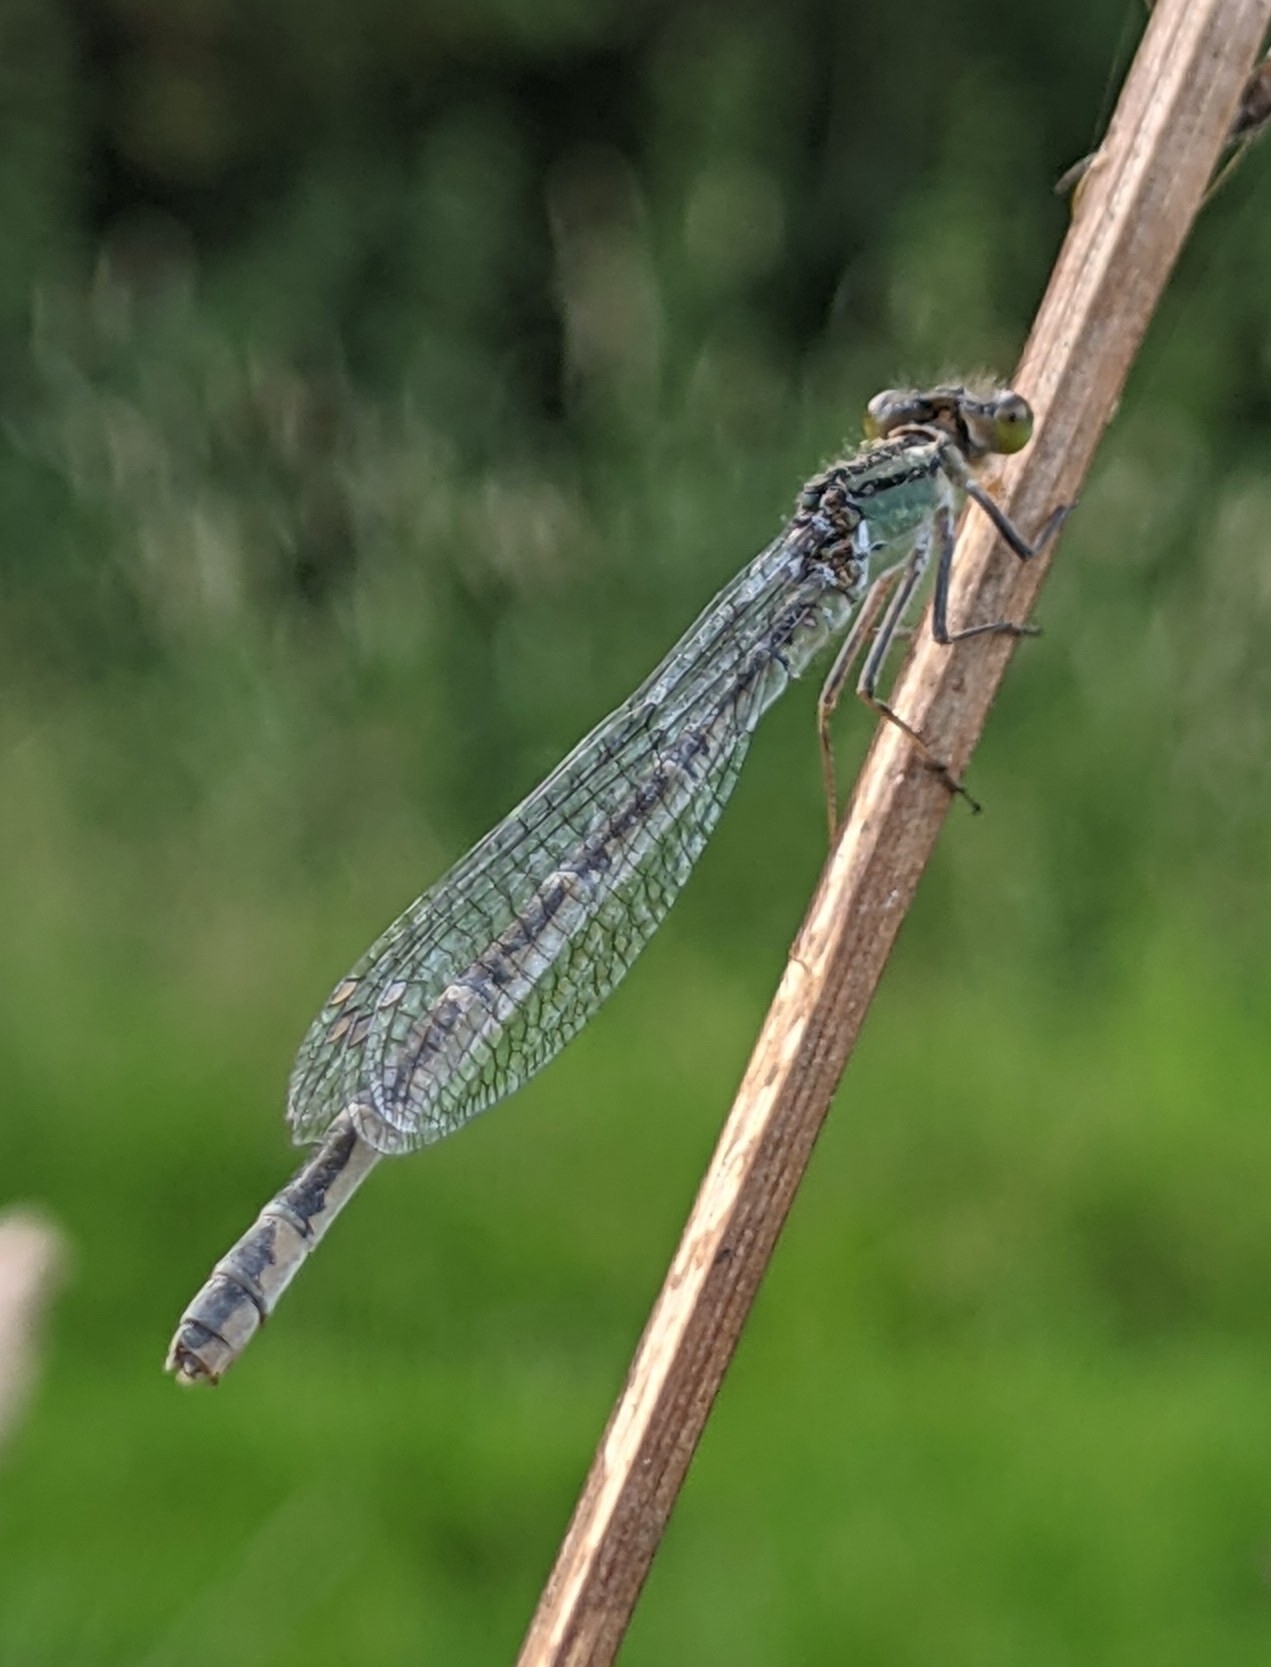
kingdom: Animalia
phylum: Arthropoda
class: Insecta
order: Odonata
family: Coenagrionidae
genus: Enallagma
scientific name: Enallagma cyathigerum
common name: Common blue damselfly
